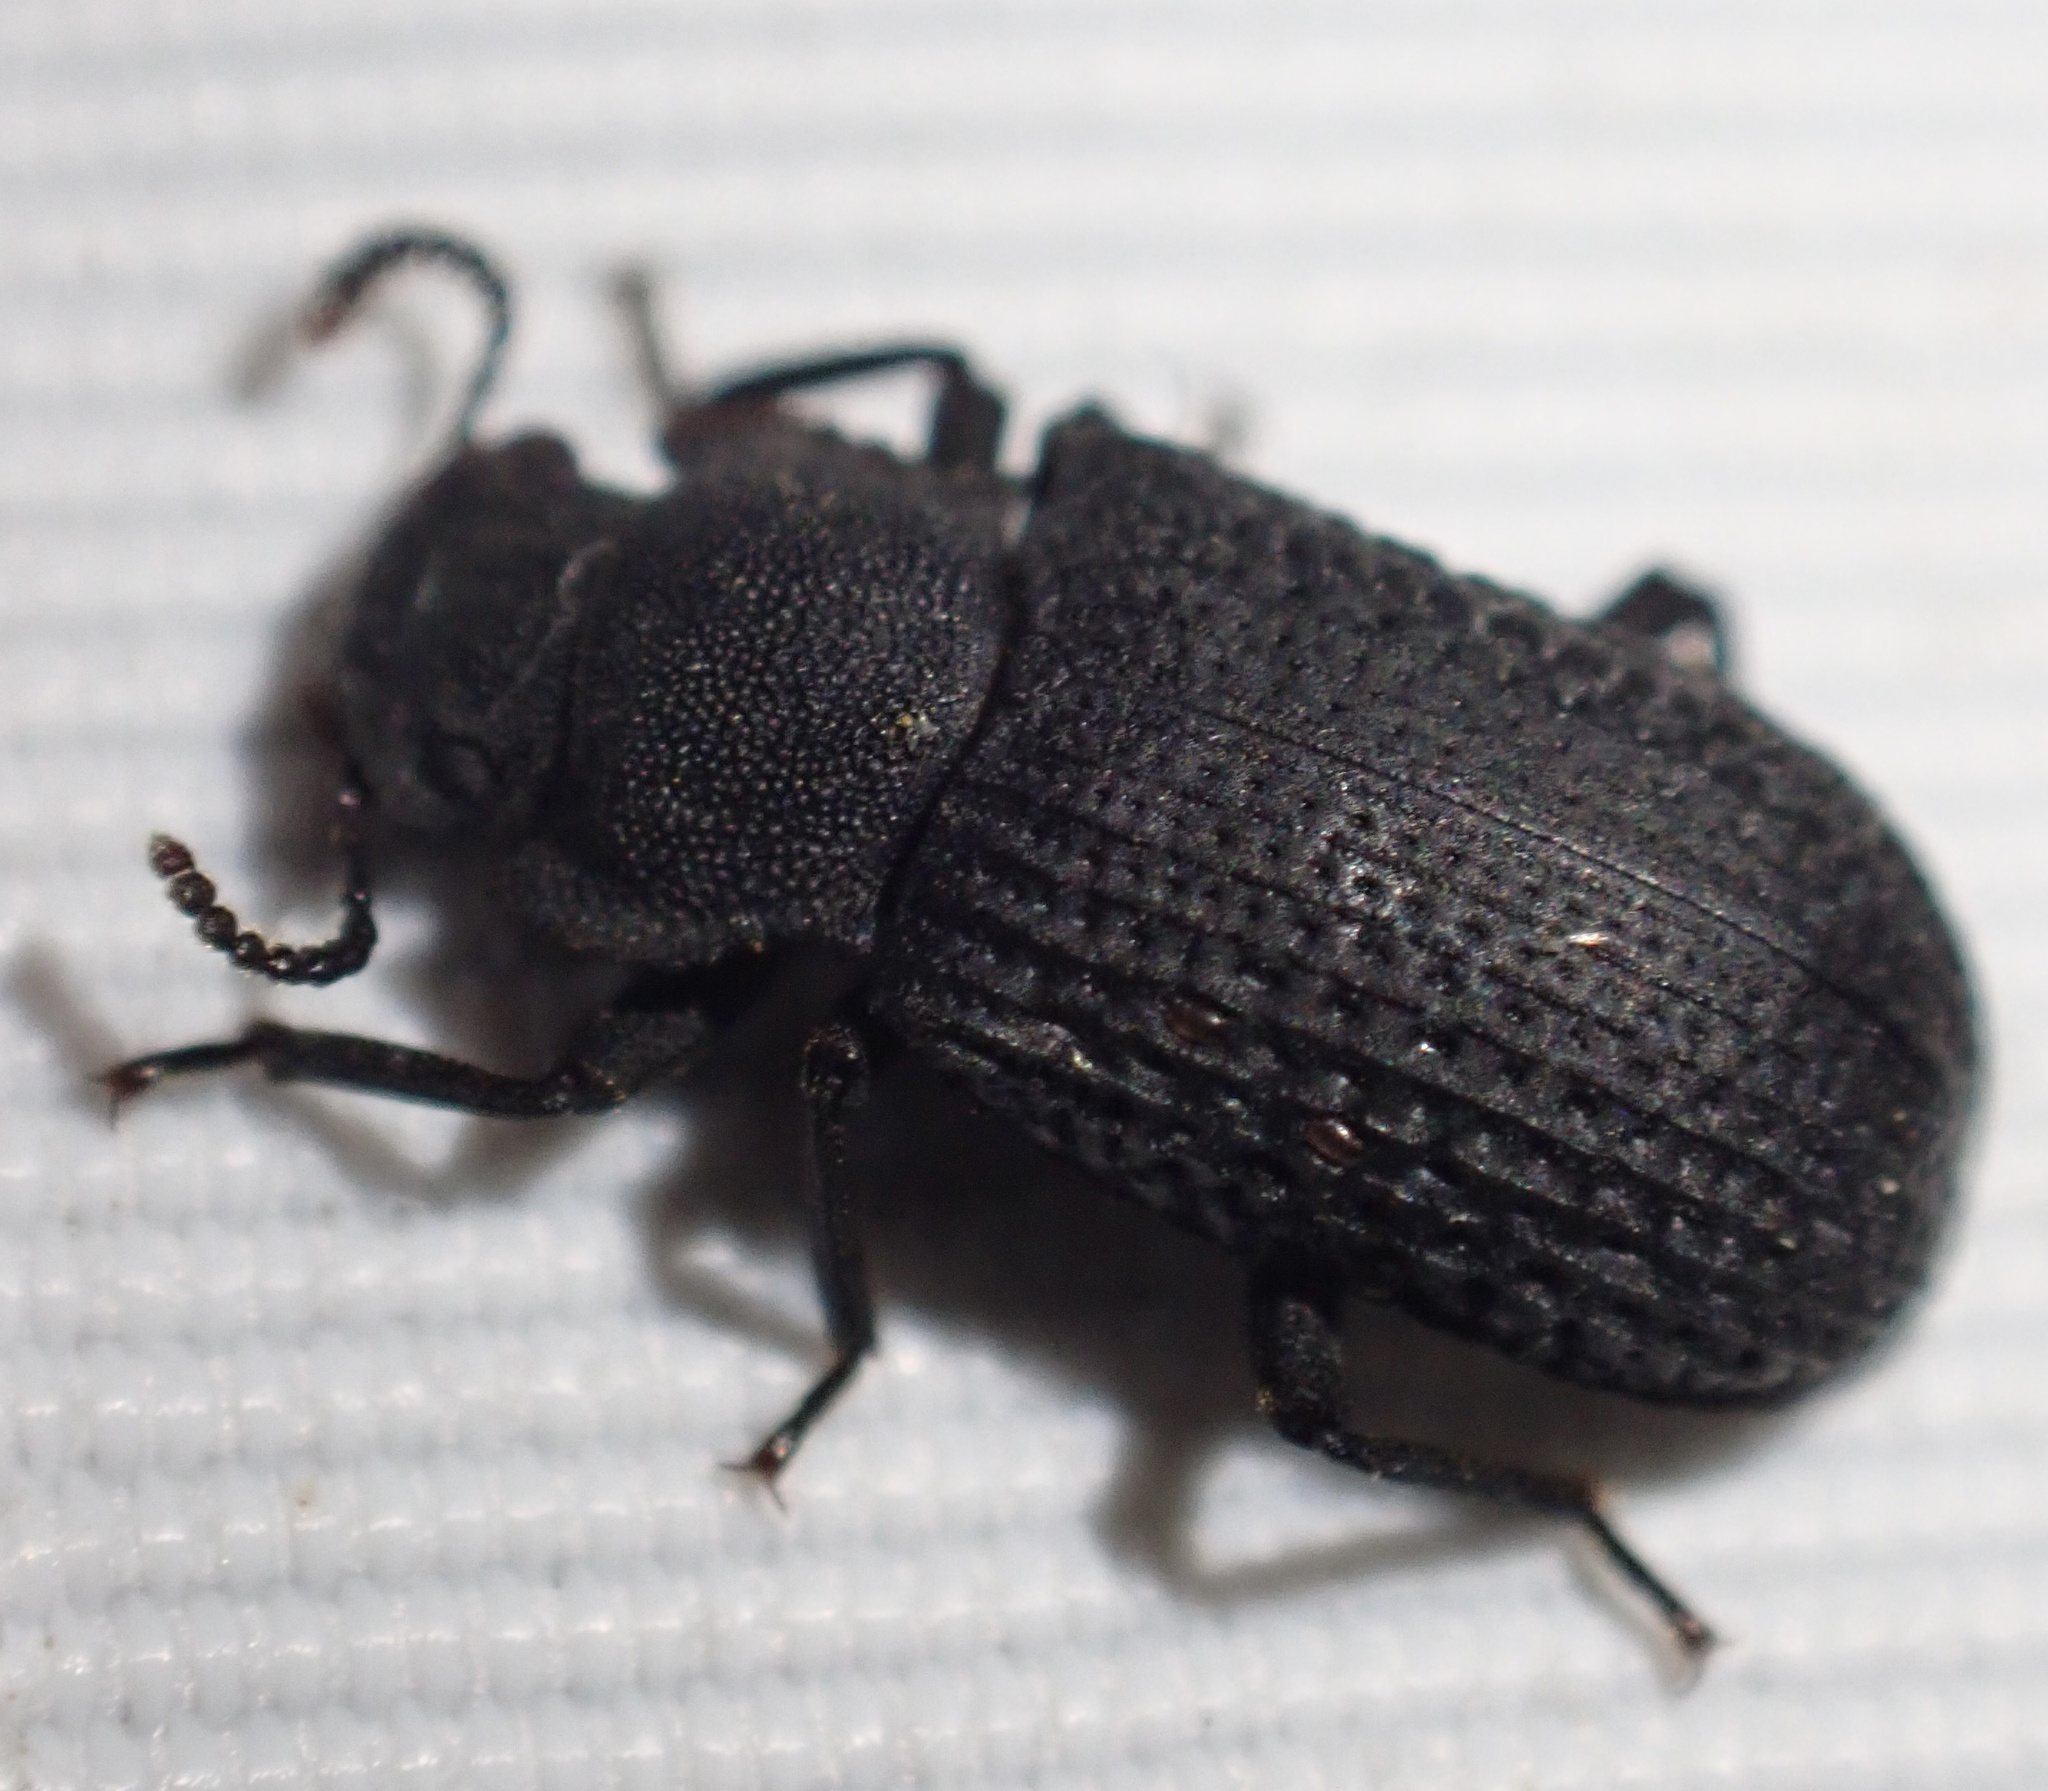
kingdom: Animalia
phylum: Arthropoda
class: Insecta
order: Coleoptera
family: Tenebrionidae
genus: Bolitophagus
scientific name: Bolitophagus reticulatus
